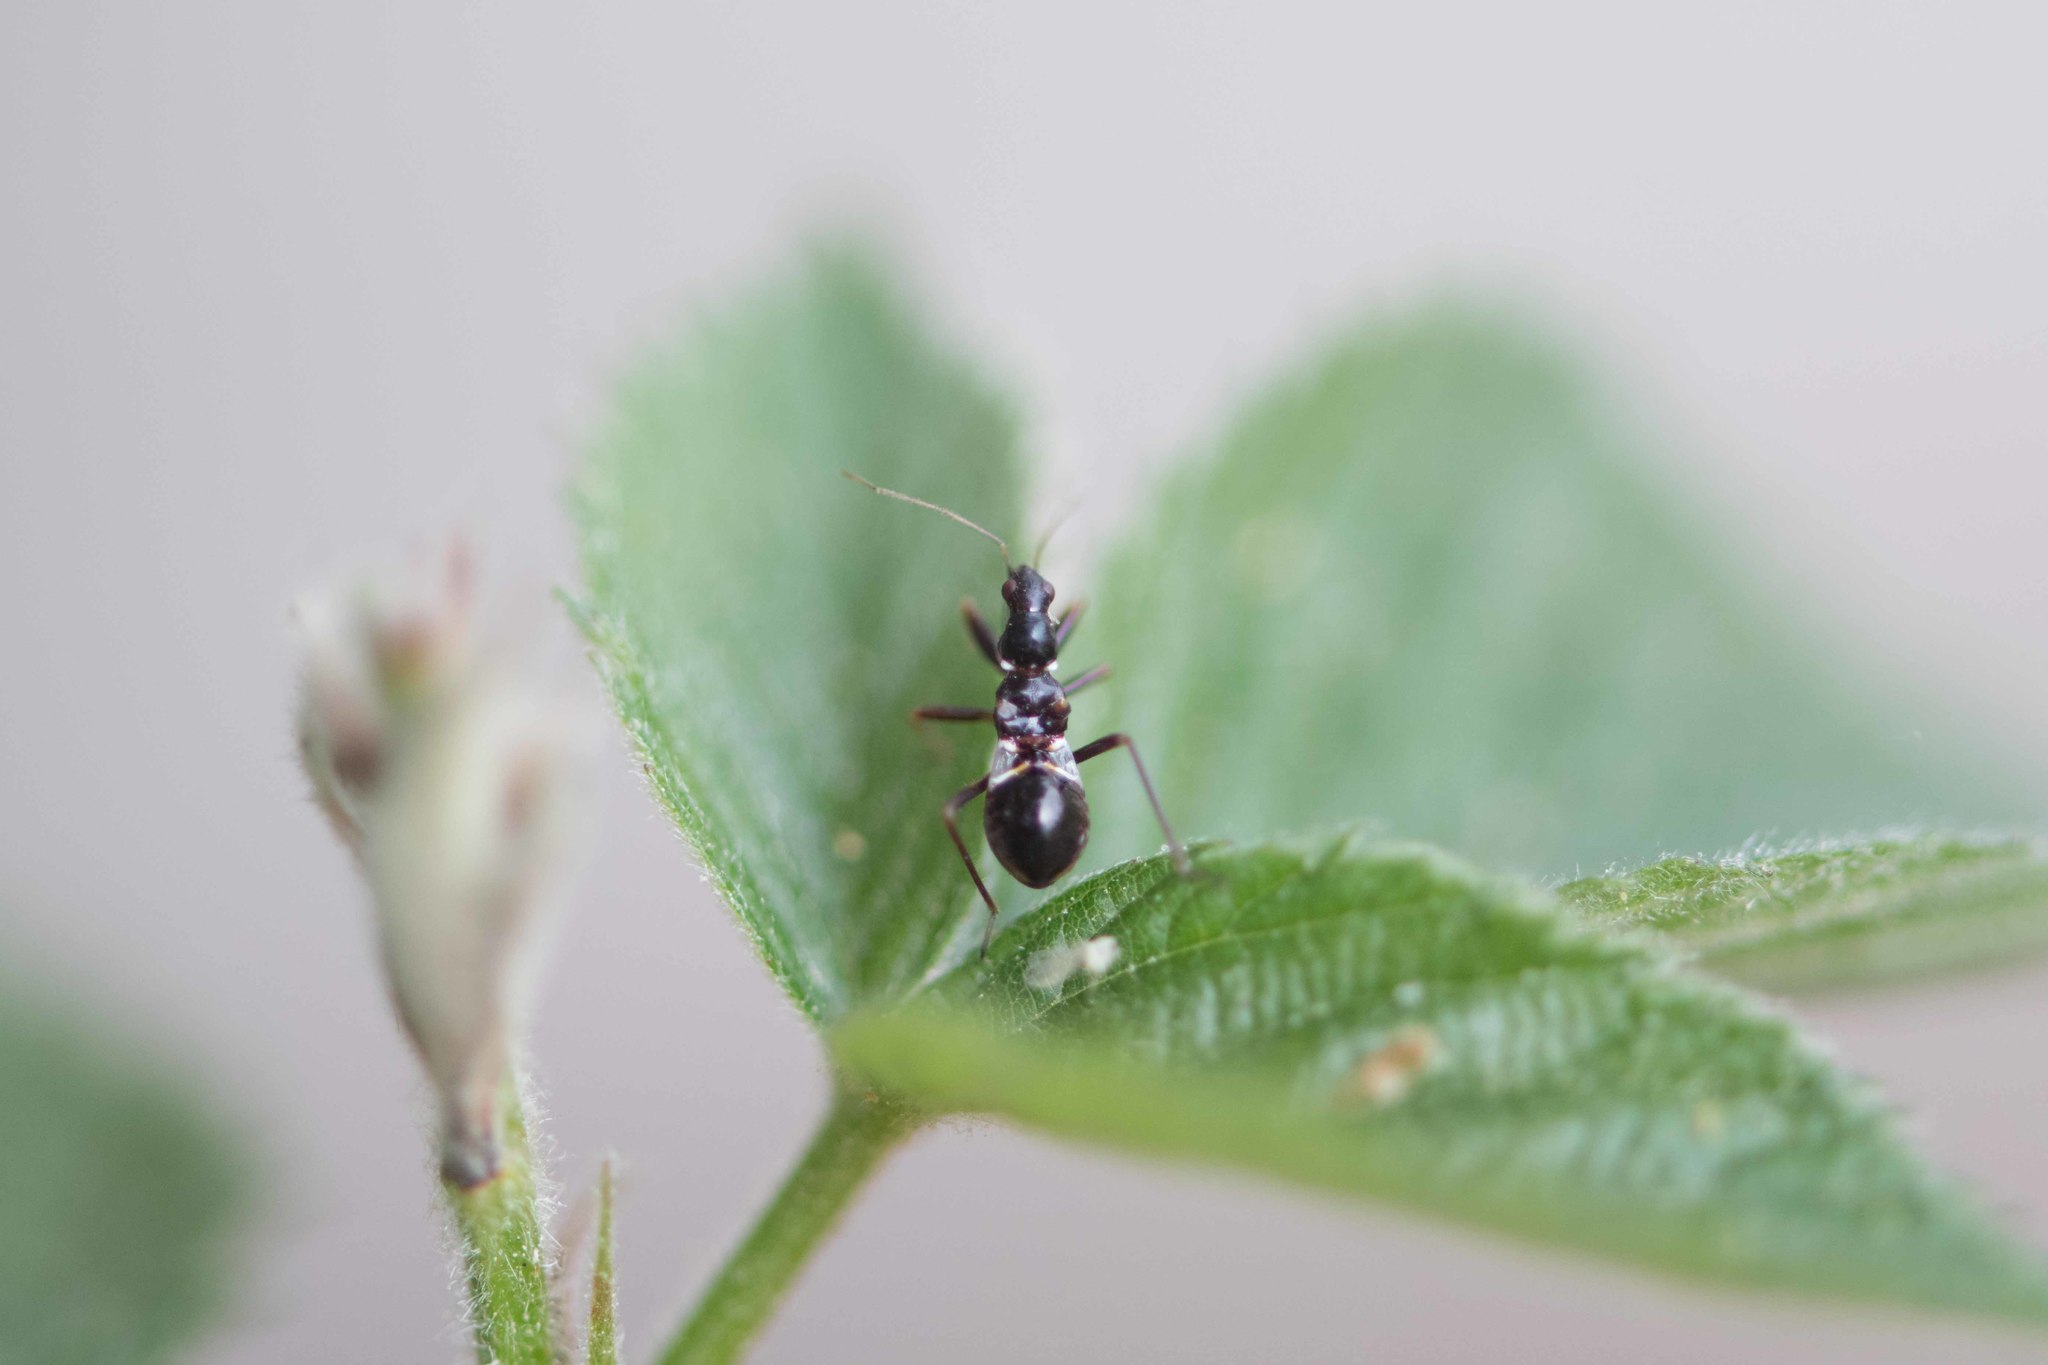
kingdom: Animalia
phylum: Arthropoda
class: Insecta
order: Hemiptera
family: Nabidae
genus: Himacerus
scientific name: Himacerus mirmicoides
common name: Ant damsel bug
